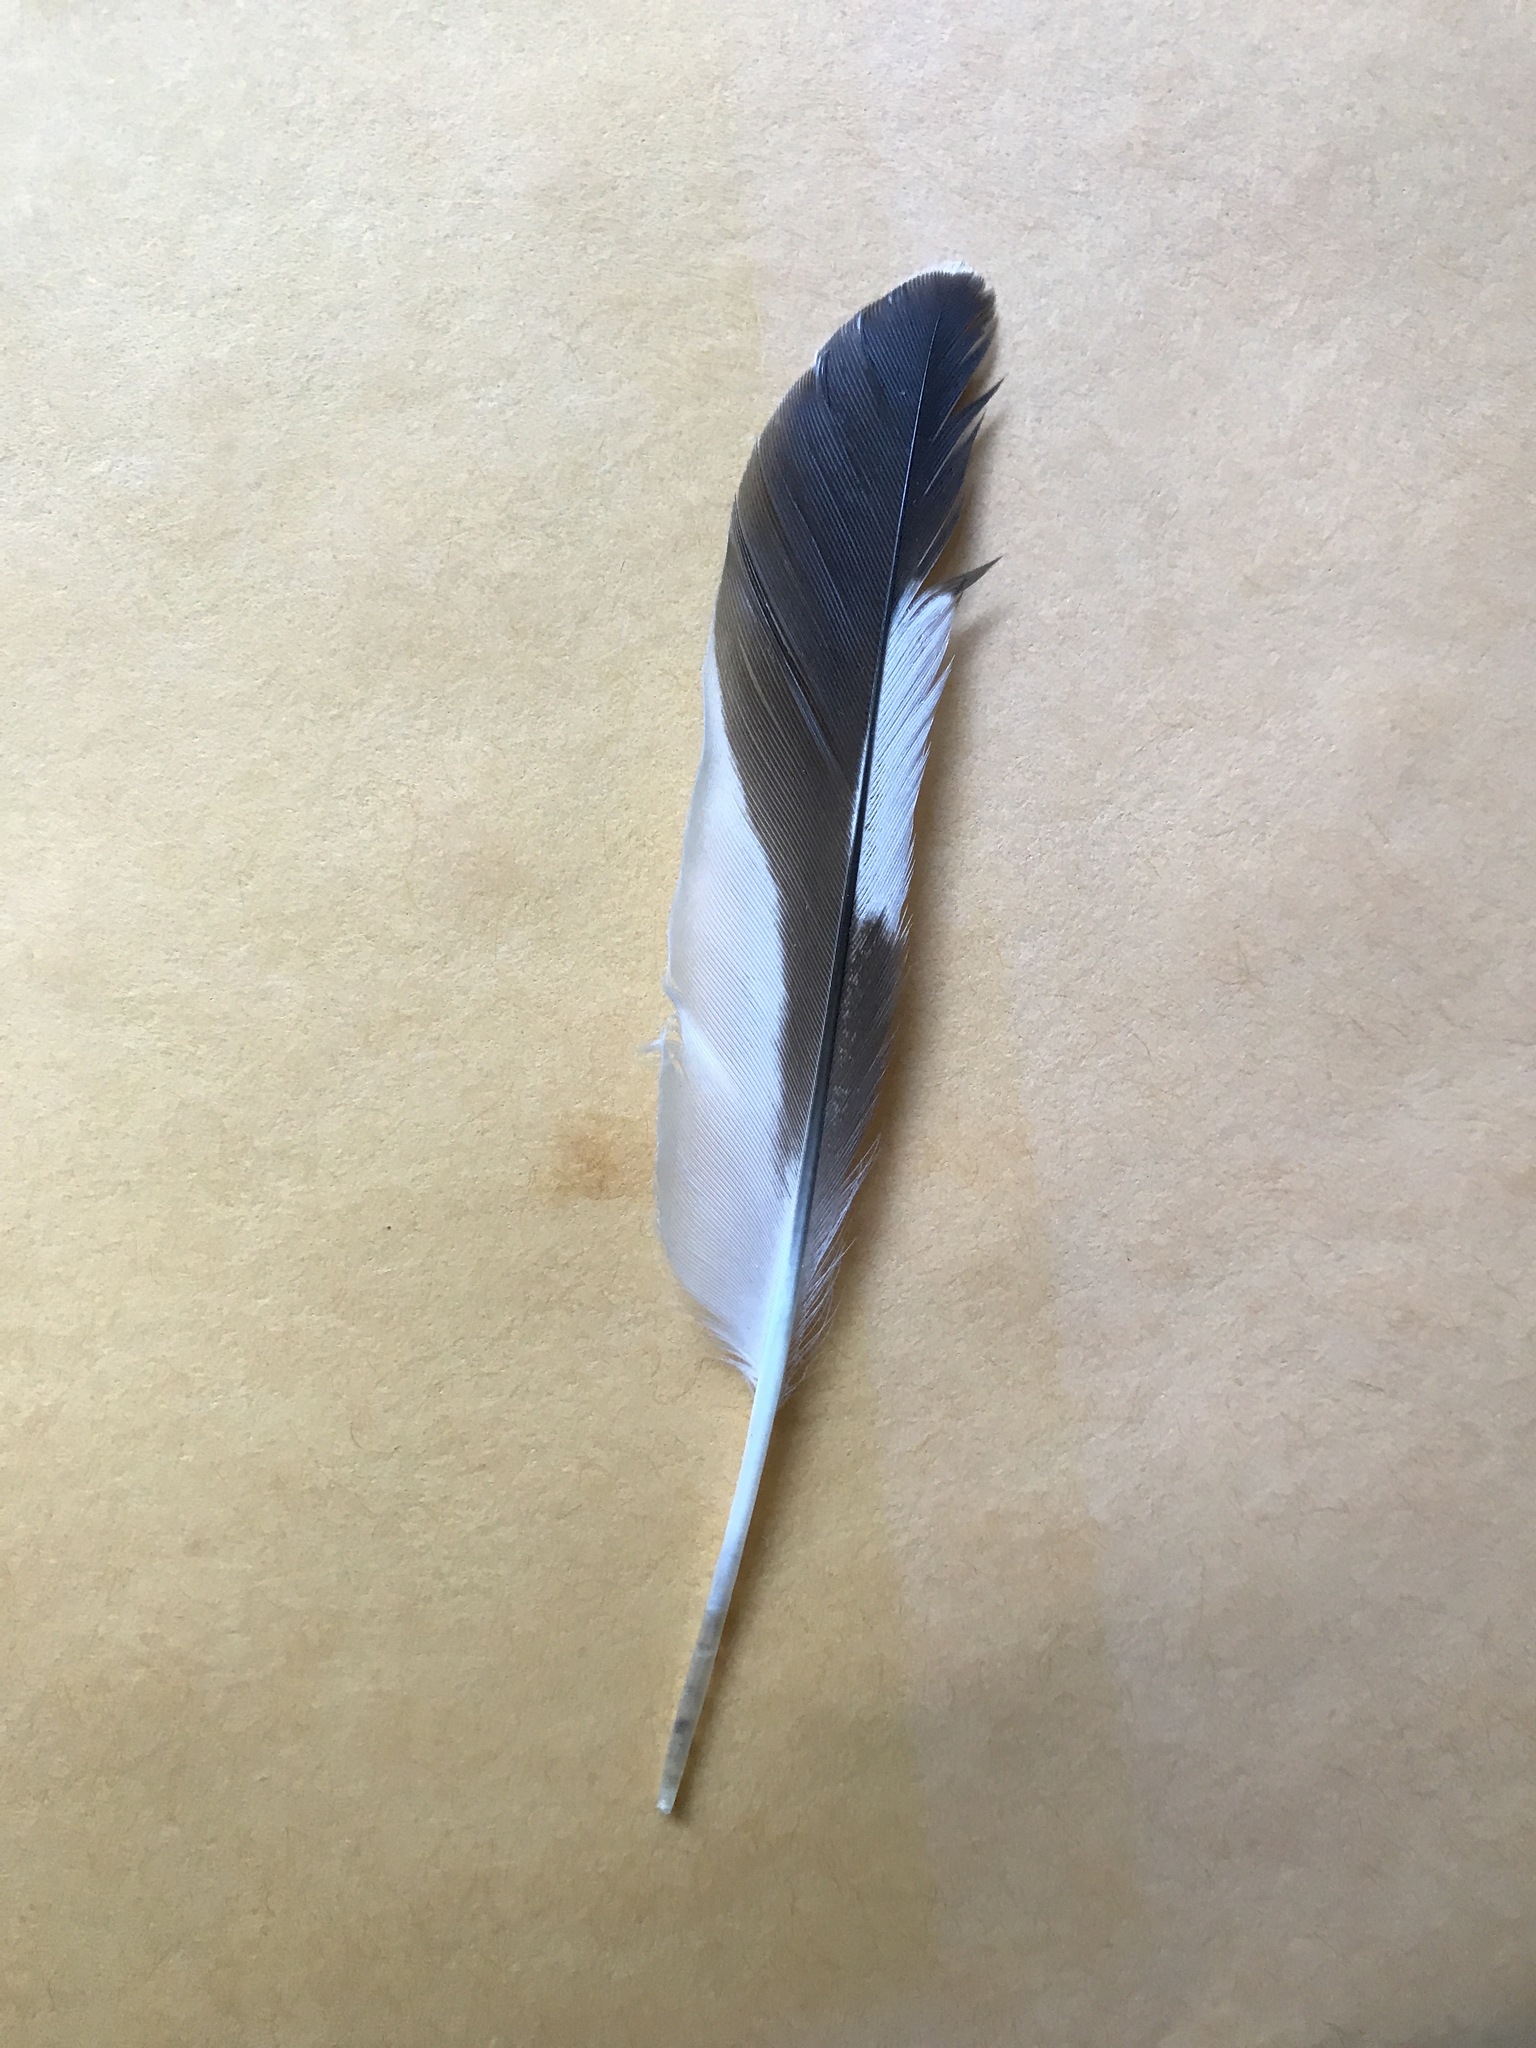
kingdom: Animalia
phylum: Chordata
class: Aves
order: Charadriiformes
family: Charadriidae
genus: Charadrius
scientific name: Charadrius vociferus
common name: Killdeer
